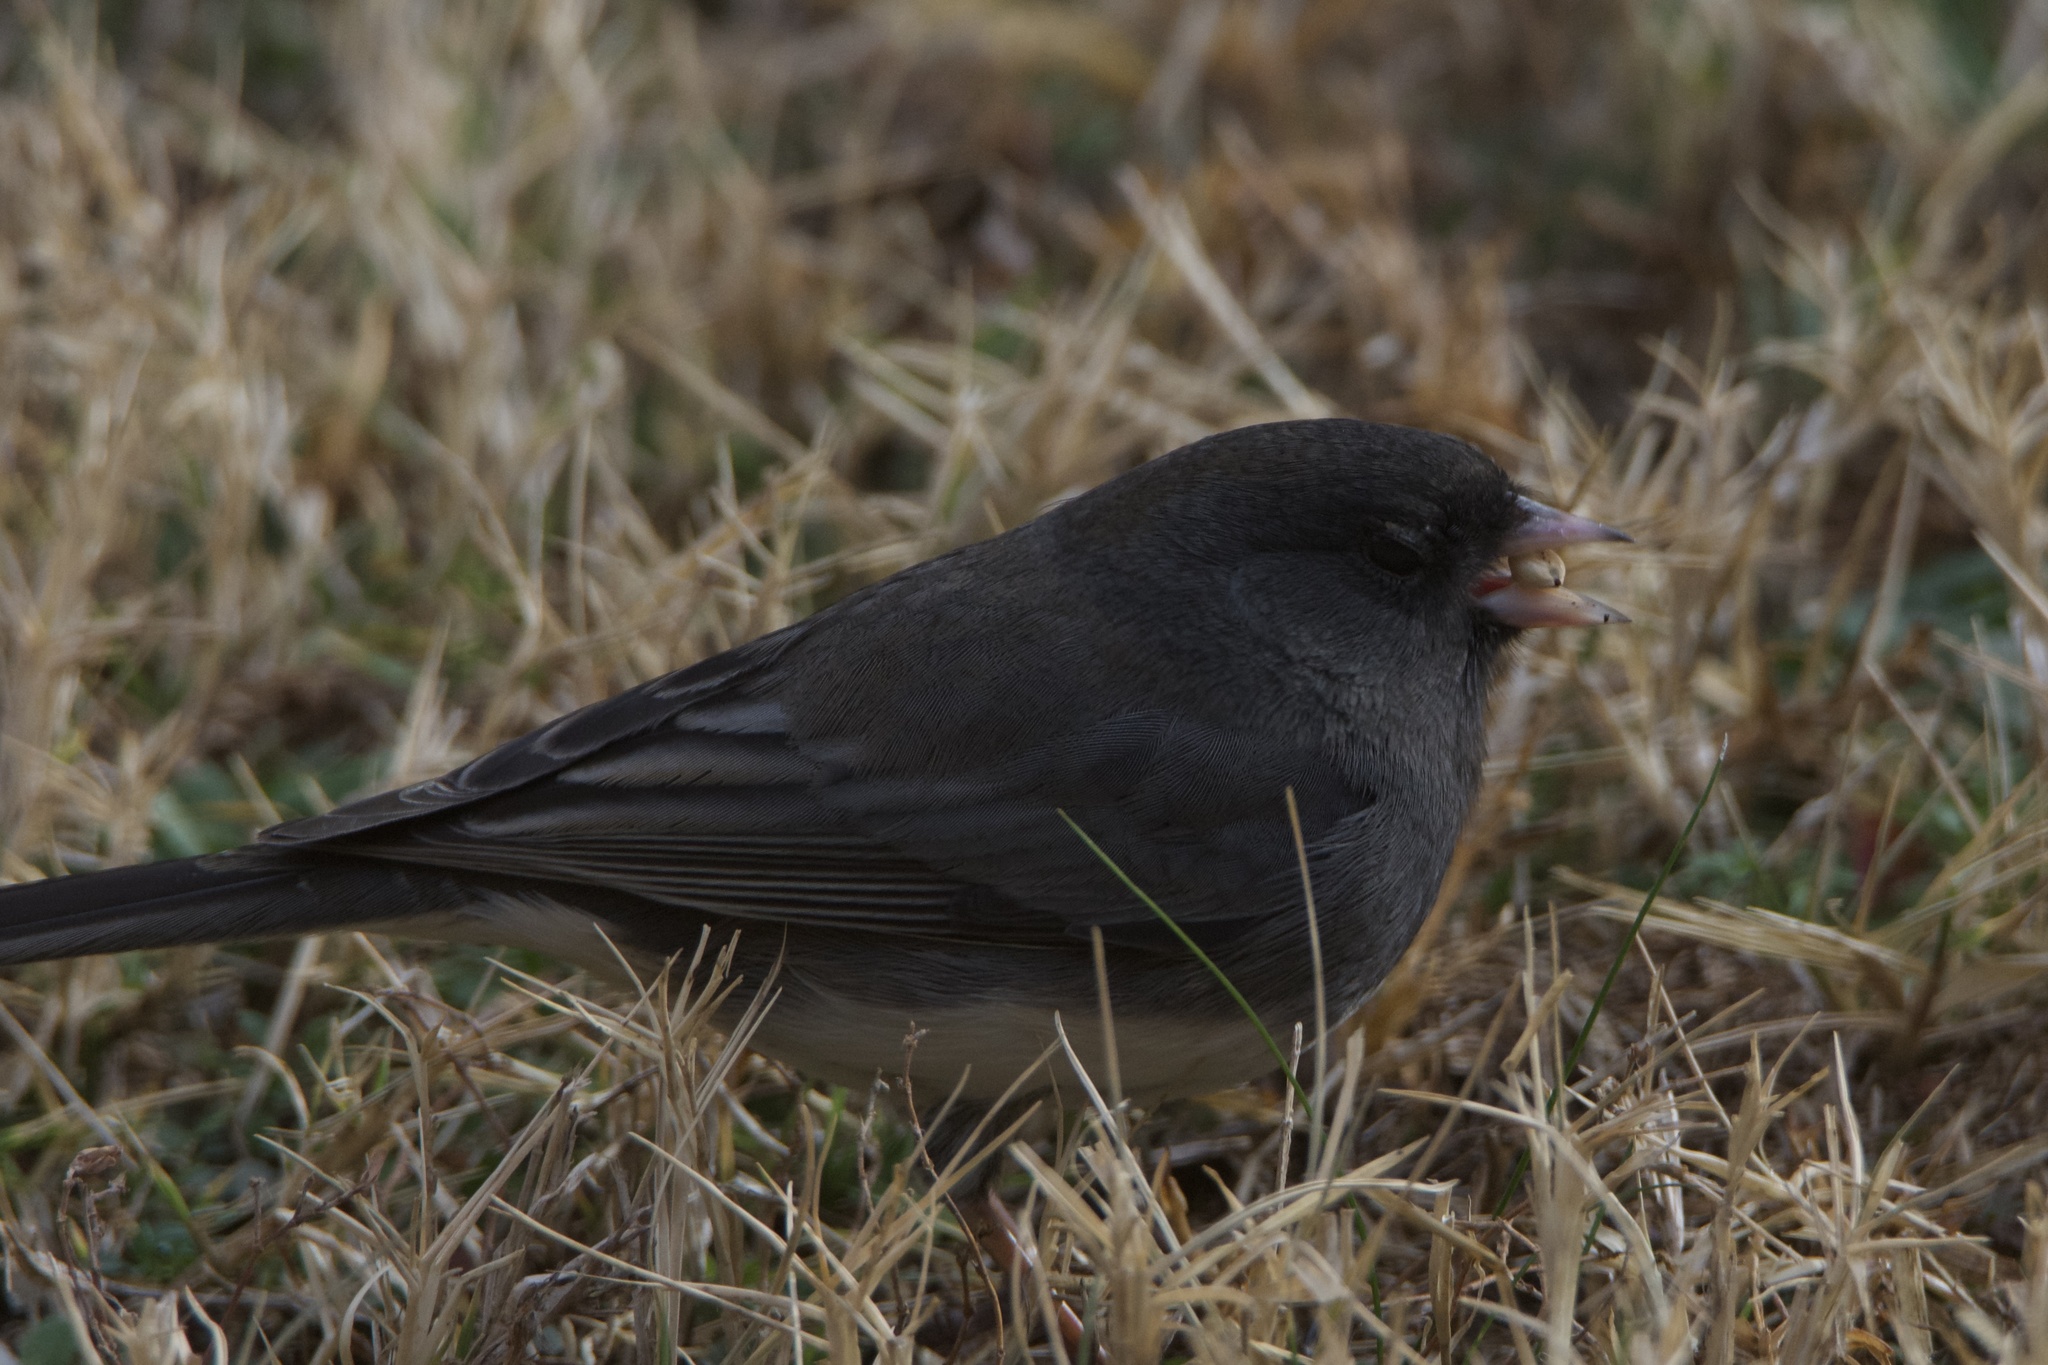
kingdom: Animalia
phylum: Chordata
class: Aves
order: Passeriformes
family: Passerellidae
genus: Junco
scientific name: Junco hyemalis
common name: Dark-eyed junco
